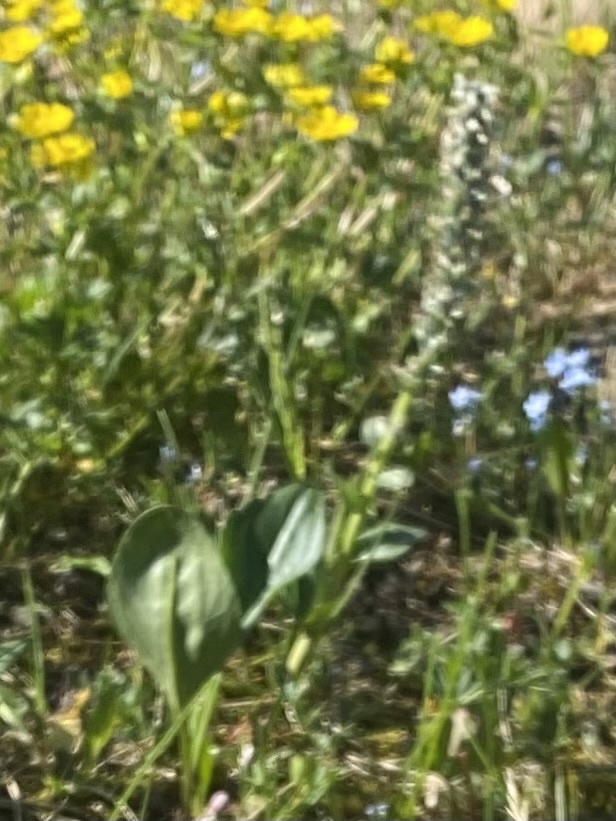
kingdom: Plantae
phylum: Tracheophyta
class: Magnoliopsida
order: Lamiales
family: Plantaginaceae
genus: Lagotis
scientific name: Lagotis glauca
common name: Glaucous weaselsnout
